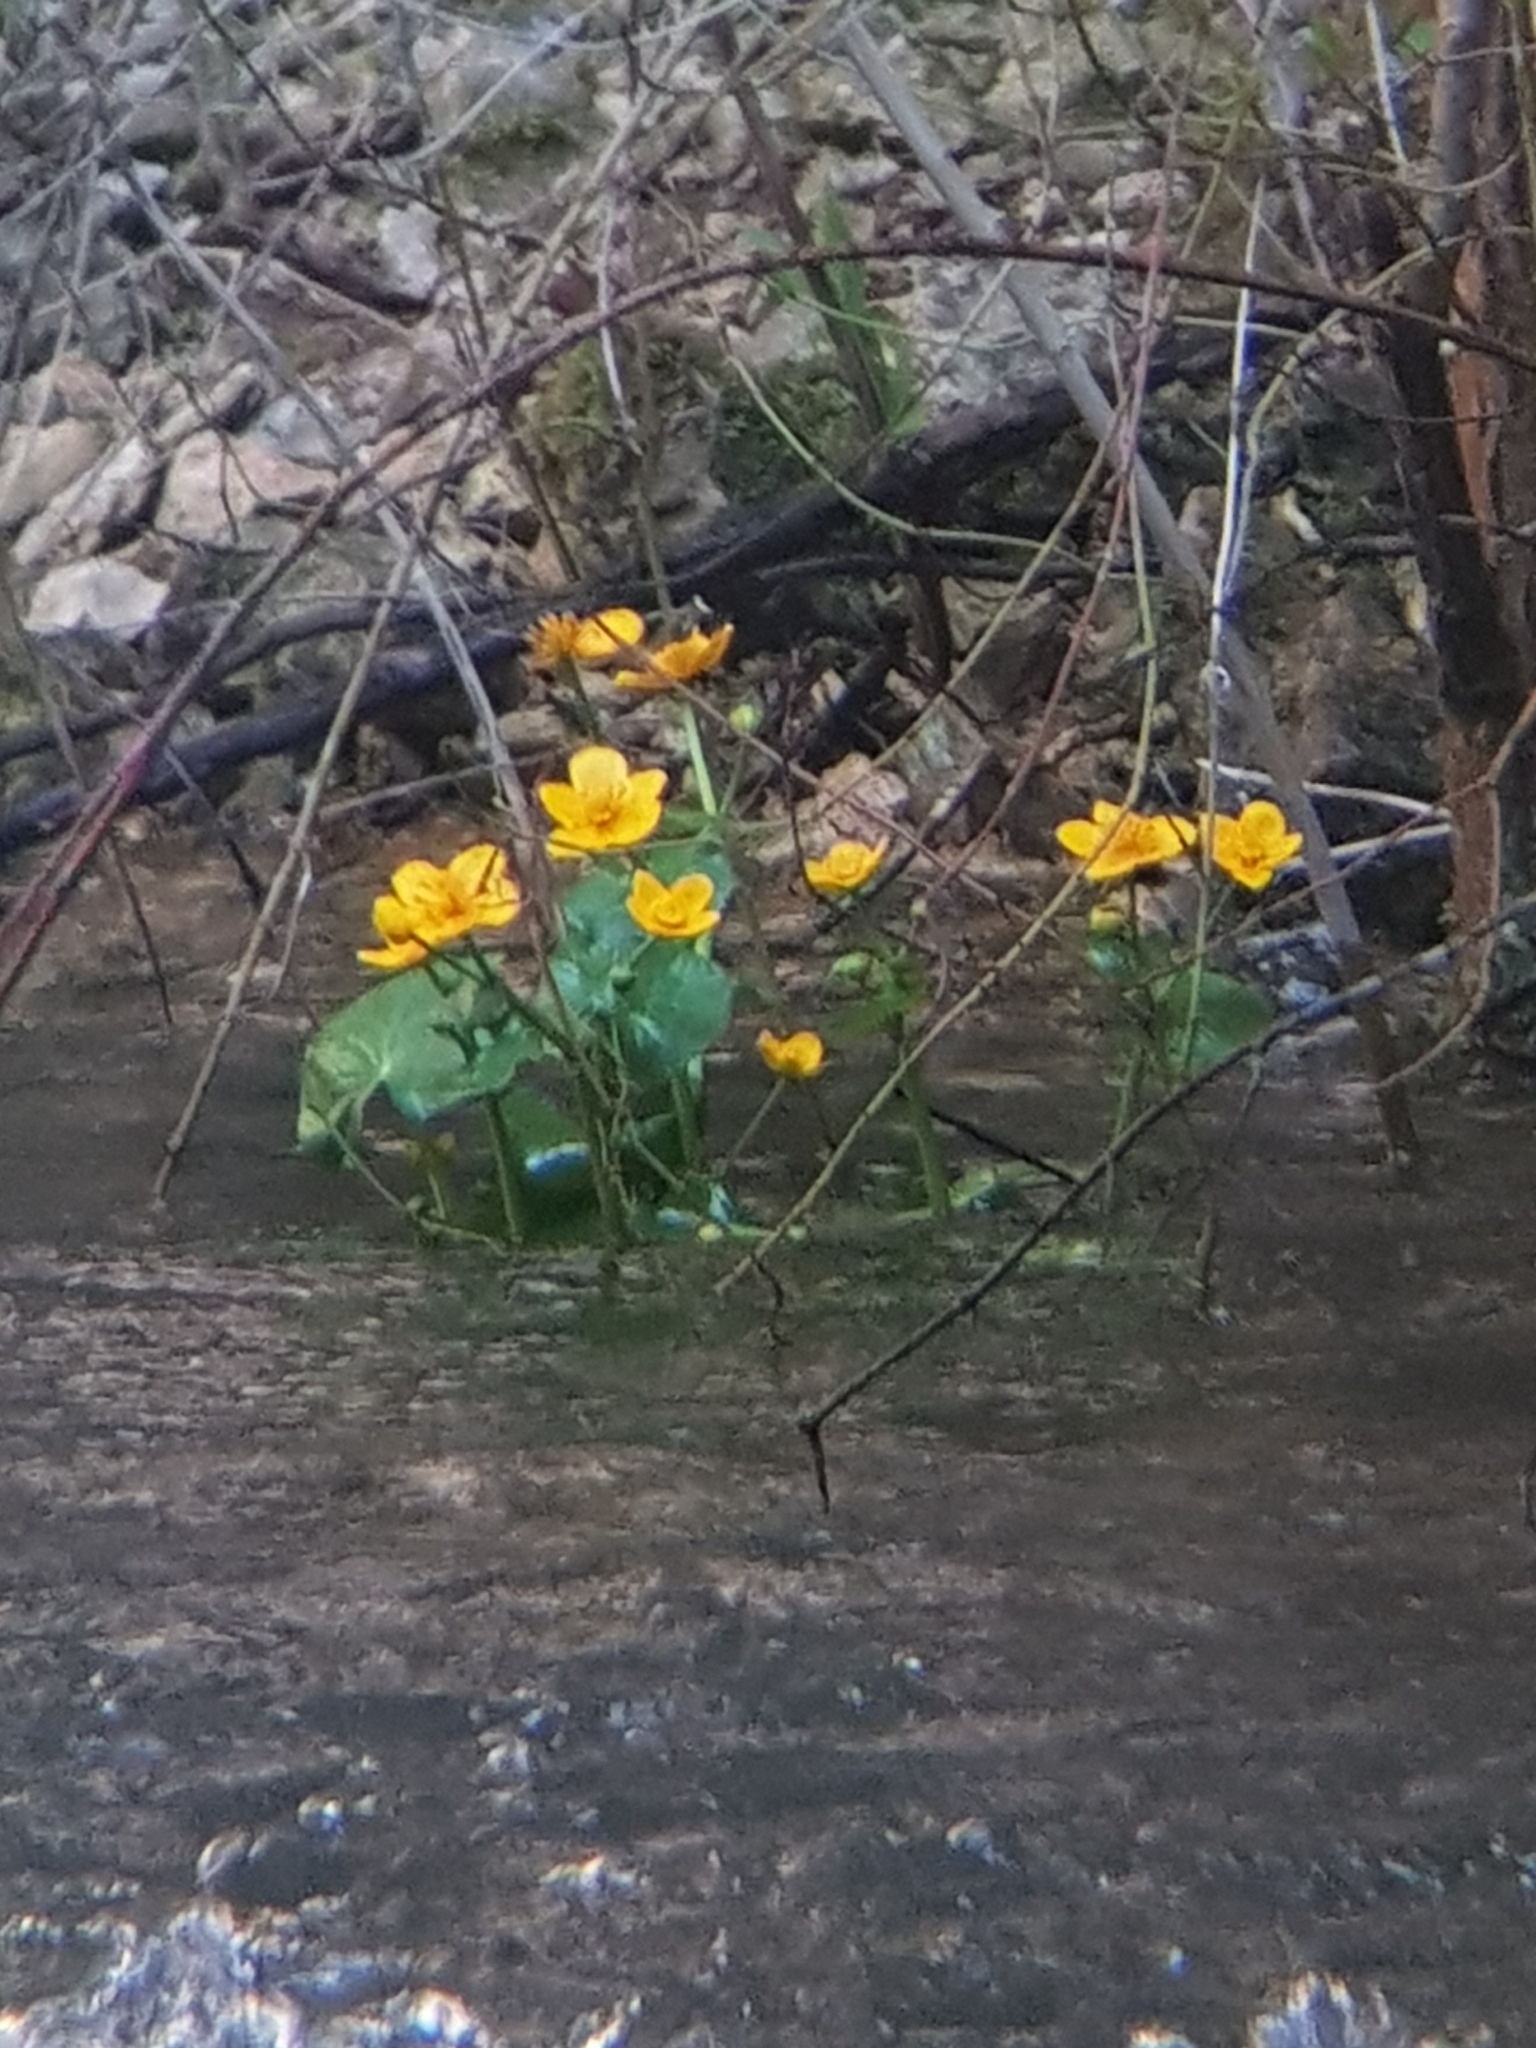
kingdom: Plantae
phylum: Tracheophyta
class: Magnoliopsida
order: Ranunculales
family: Ranunculaceae
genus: Caltha
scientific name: Caltha palustris
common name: Marsh marigold
